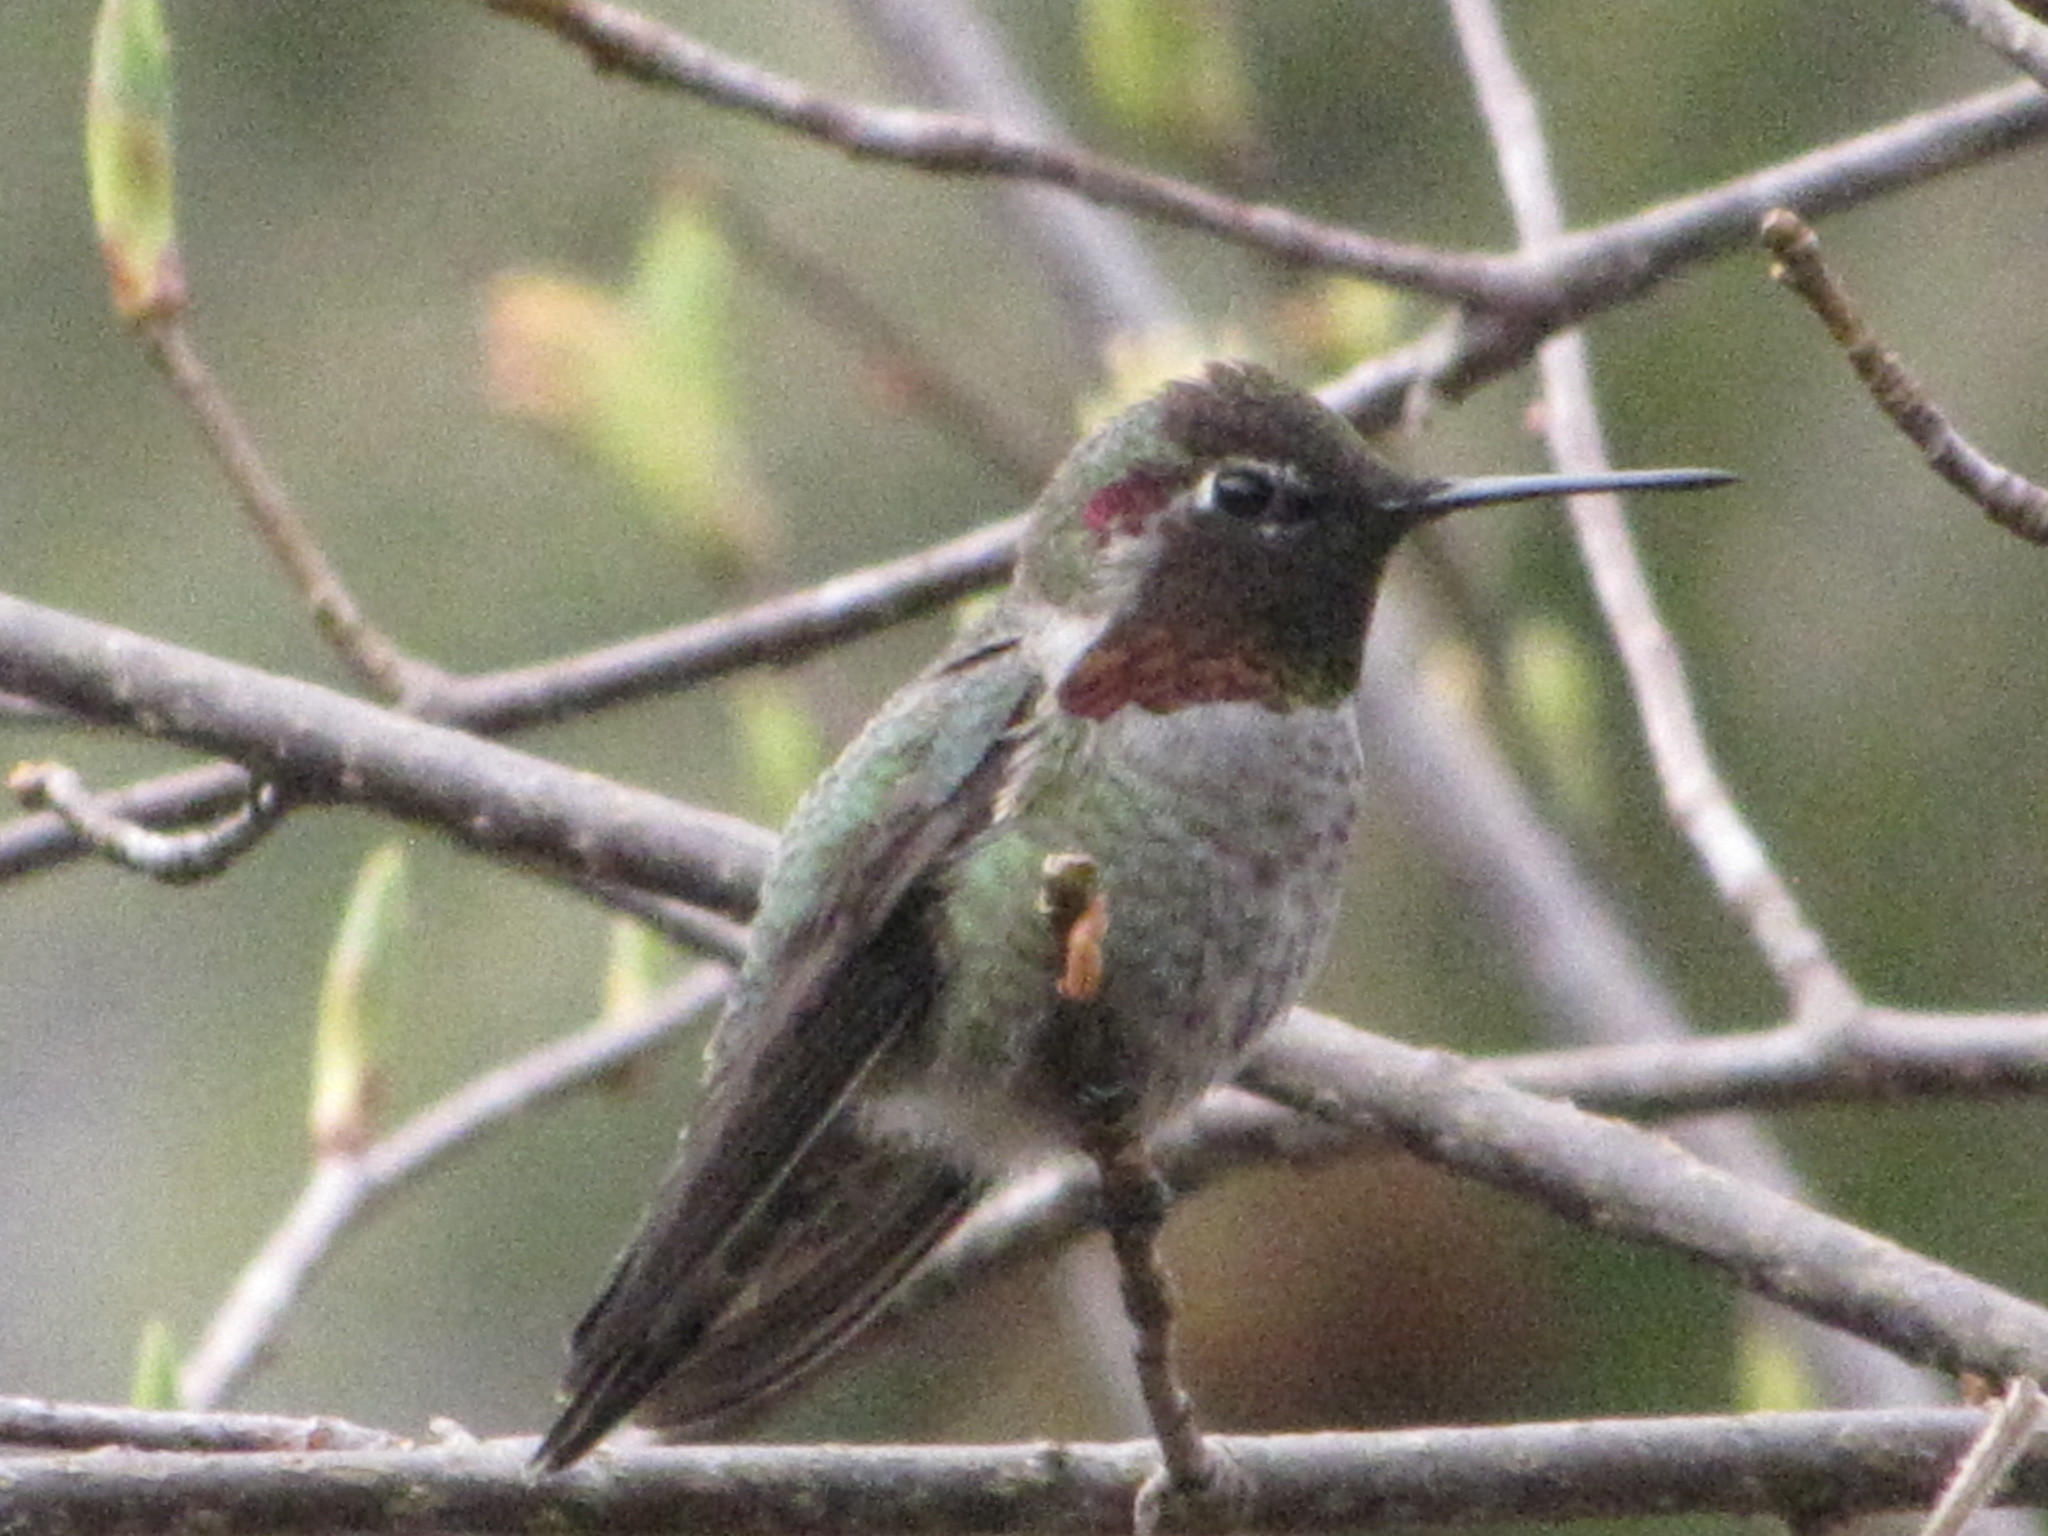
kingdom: Animalia
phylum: Chordata
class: Aves
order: Apodiformes
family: Trochilidae
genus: Calypte
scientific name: Calypte anna
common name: Anna's hummingbird
